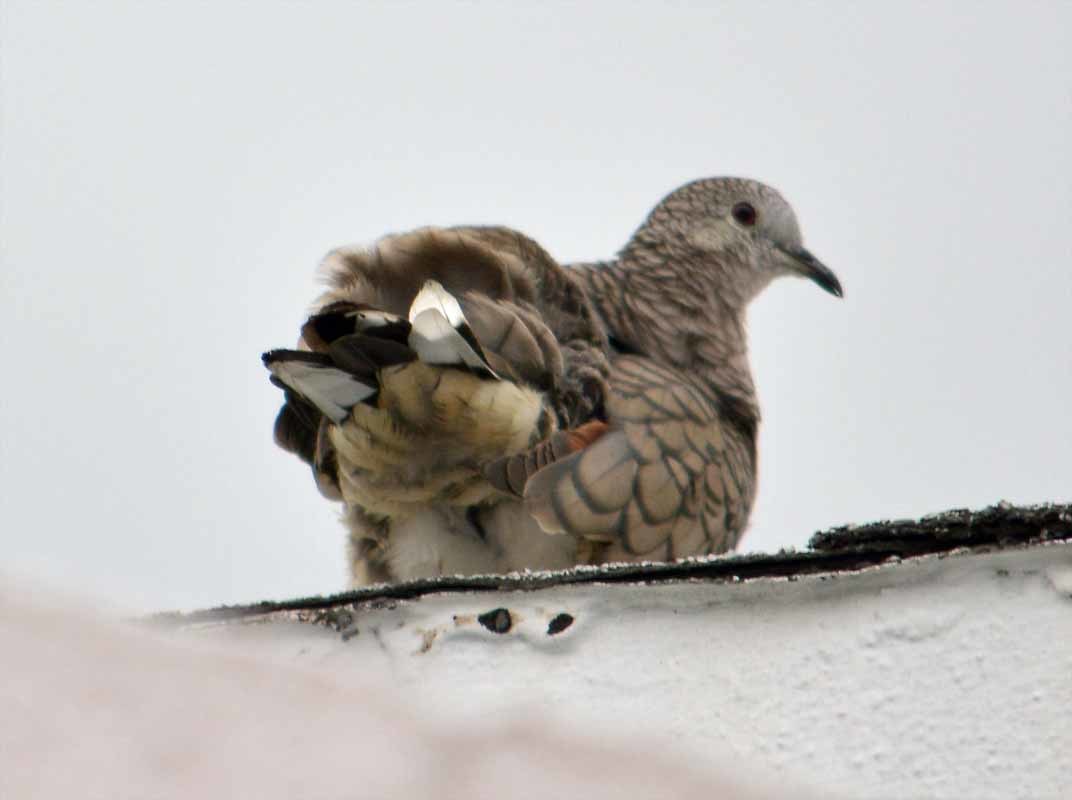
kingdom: Animalia
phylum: Chordata
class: Aves
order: Columbiformes
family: Columbidae
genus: Columbina
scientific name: Columbina inca
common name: Inca dove
